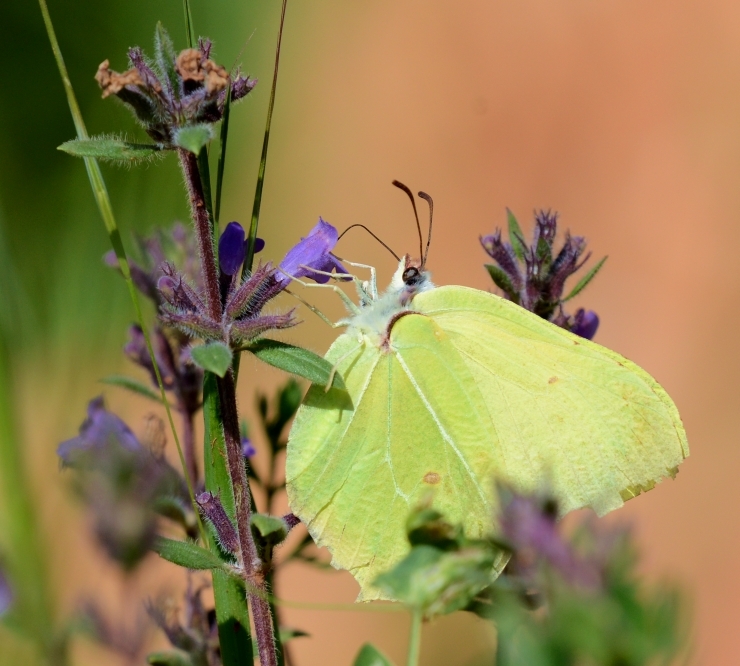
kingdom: Animalia
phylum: Arthropoda
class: Insecta
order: Lepidoptera
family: Pieridae
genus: Gonepteryx
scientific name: Gonepteryx rhamni
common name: Brimstone
